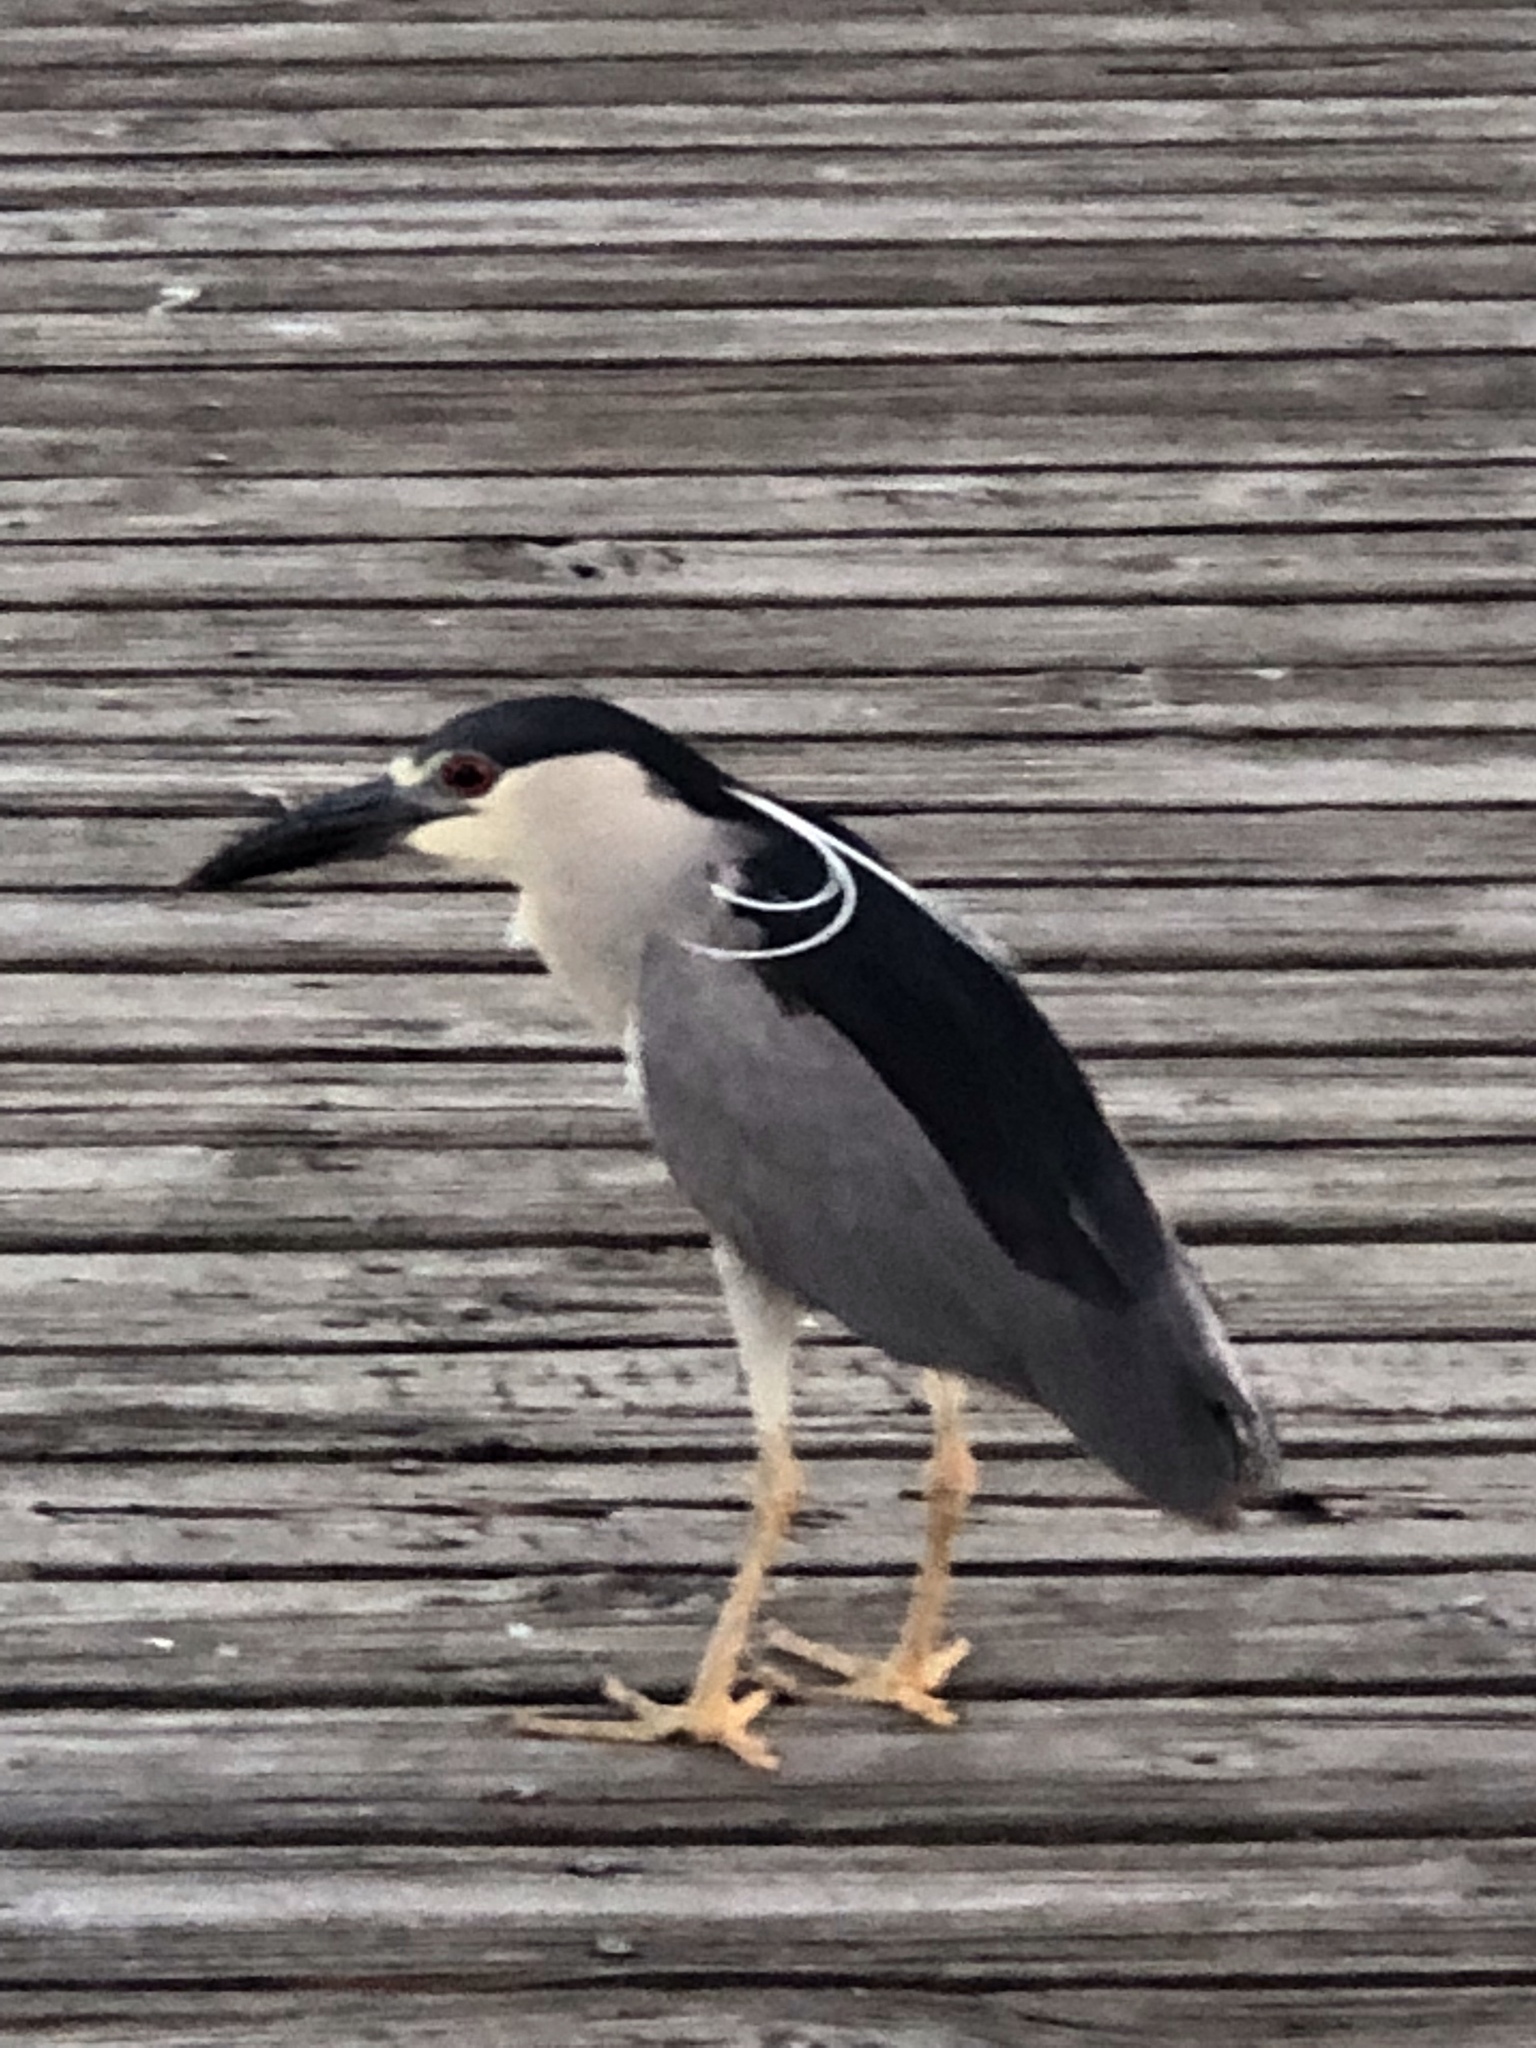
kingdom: Animalia
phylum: Chordata
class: Aves
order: Pelecaniformes
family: Ardeidae
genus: Nycticorax
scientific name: Nycticorax nycticorax
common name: Black-crowned night heron
